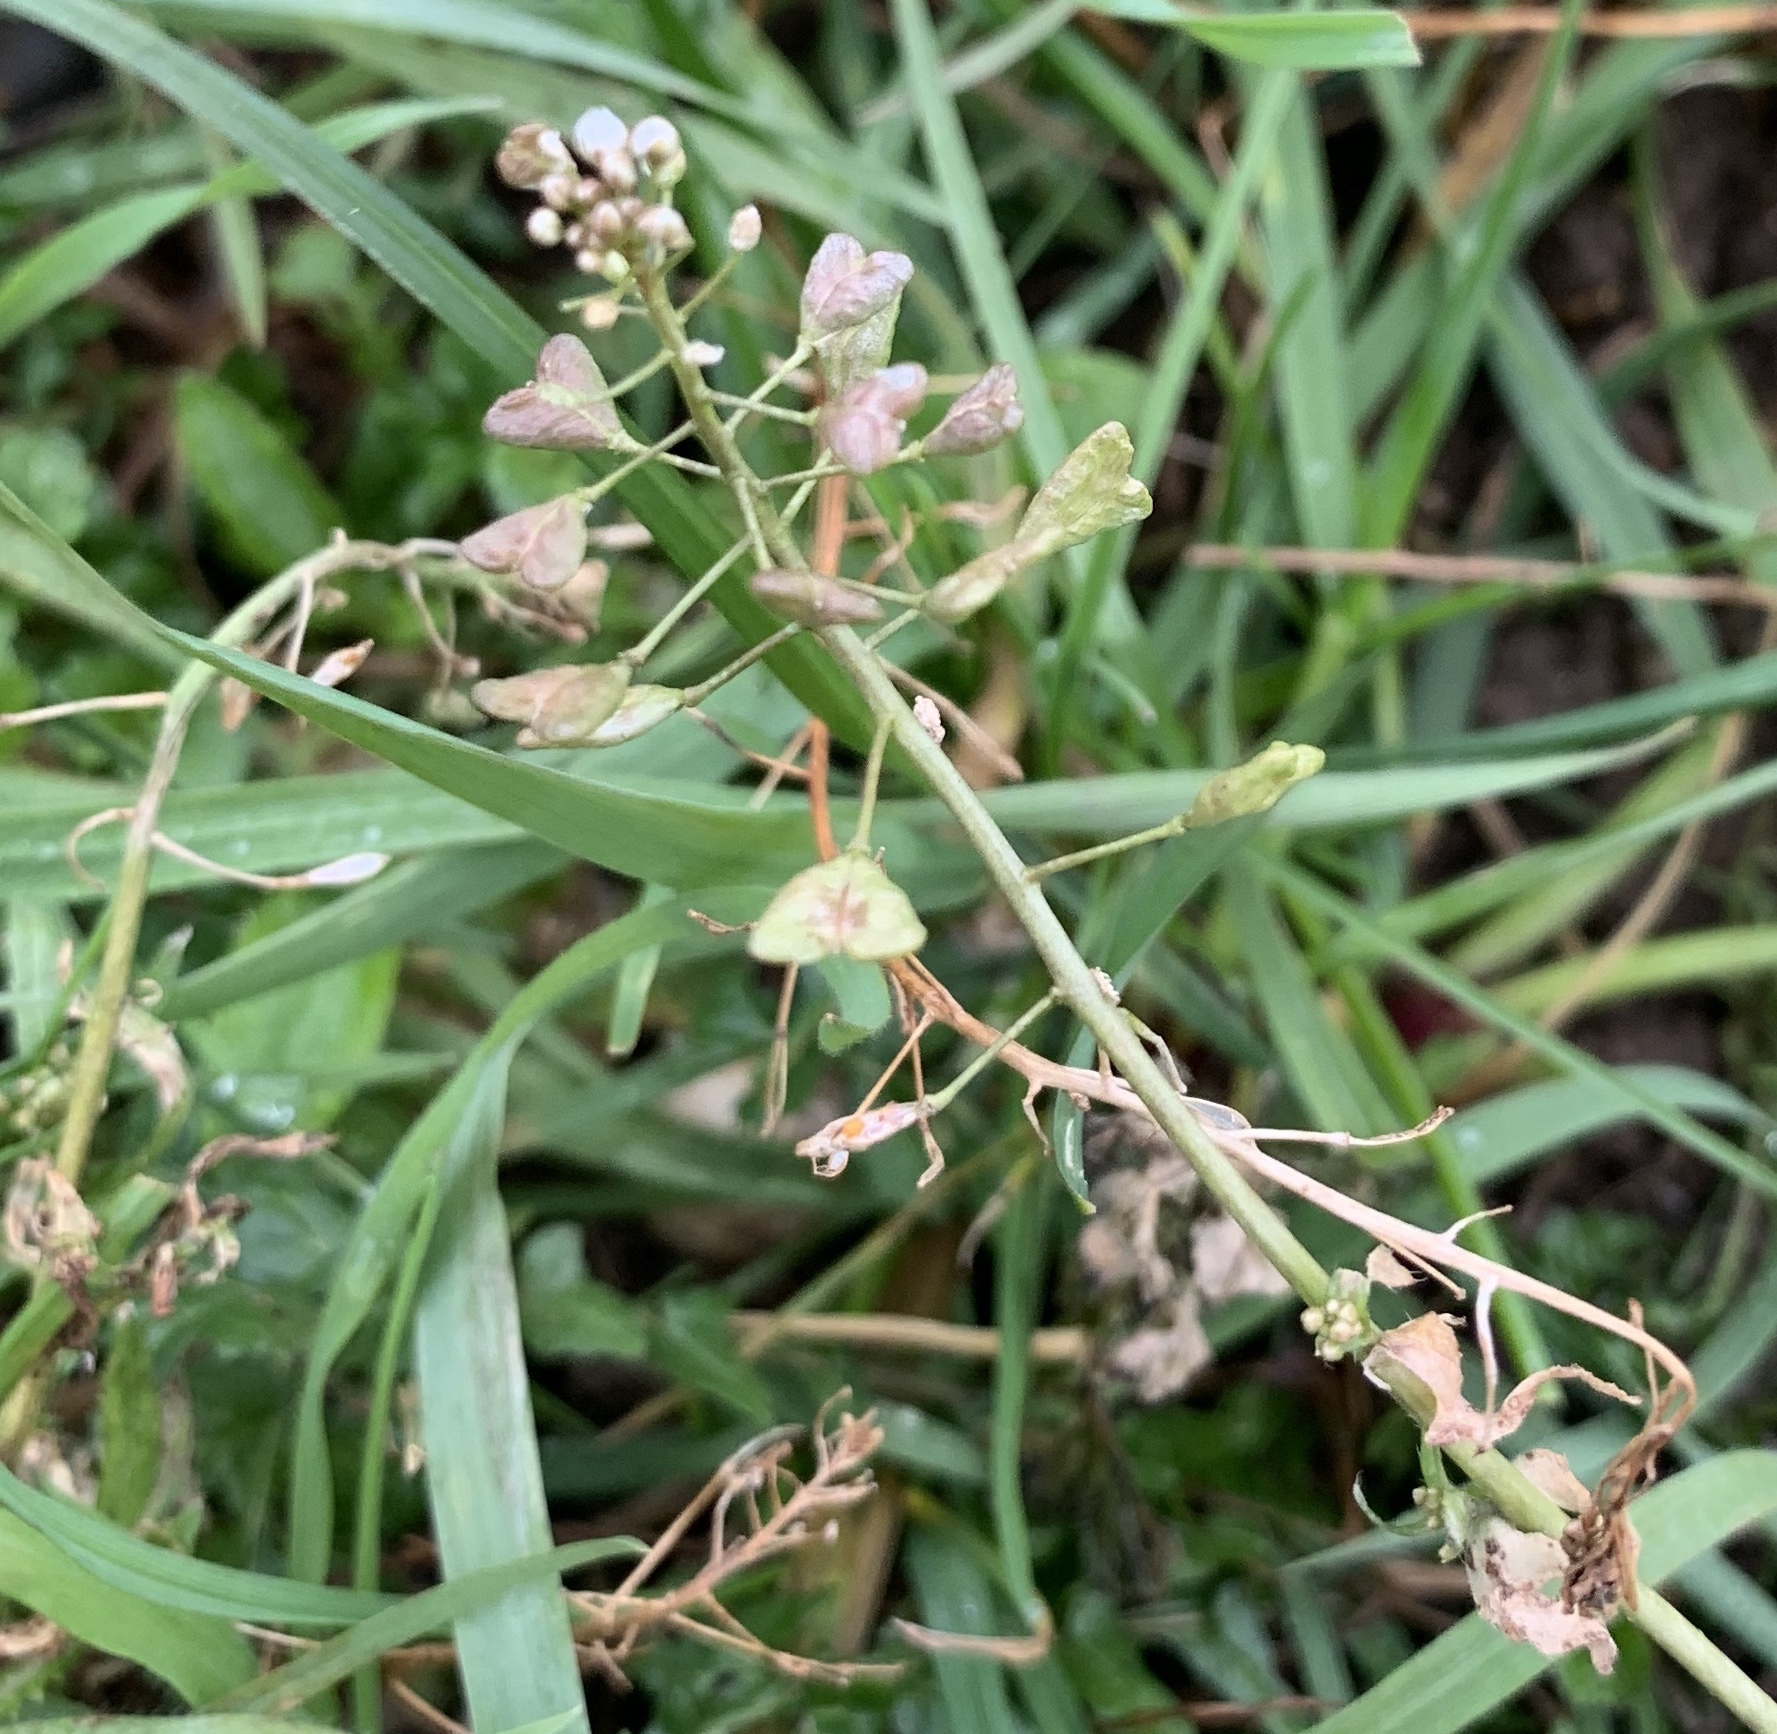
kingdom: Plantae
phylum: Tracheophyta
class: Magnoliopsida
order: Brassicales
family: Brassicaceae
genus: Capsella
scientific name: Capsella bursa-pastoris
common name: Shepherd's purse
